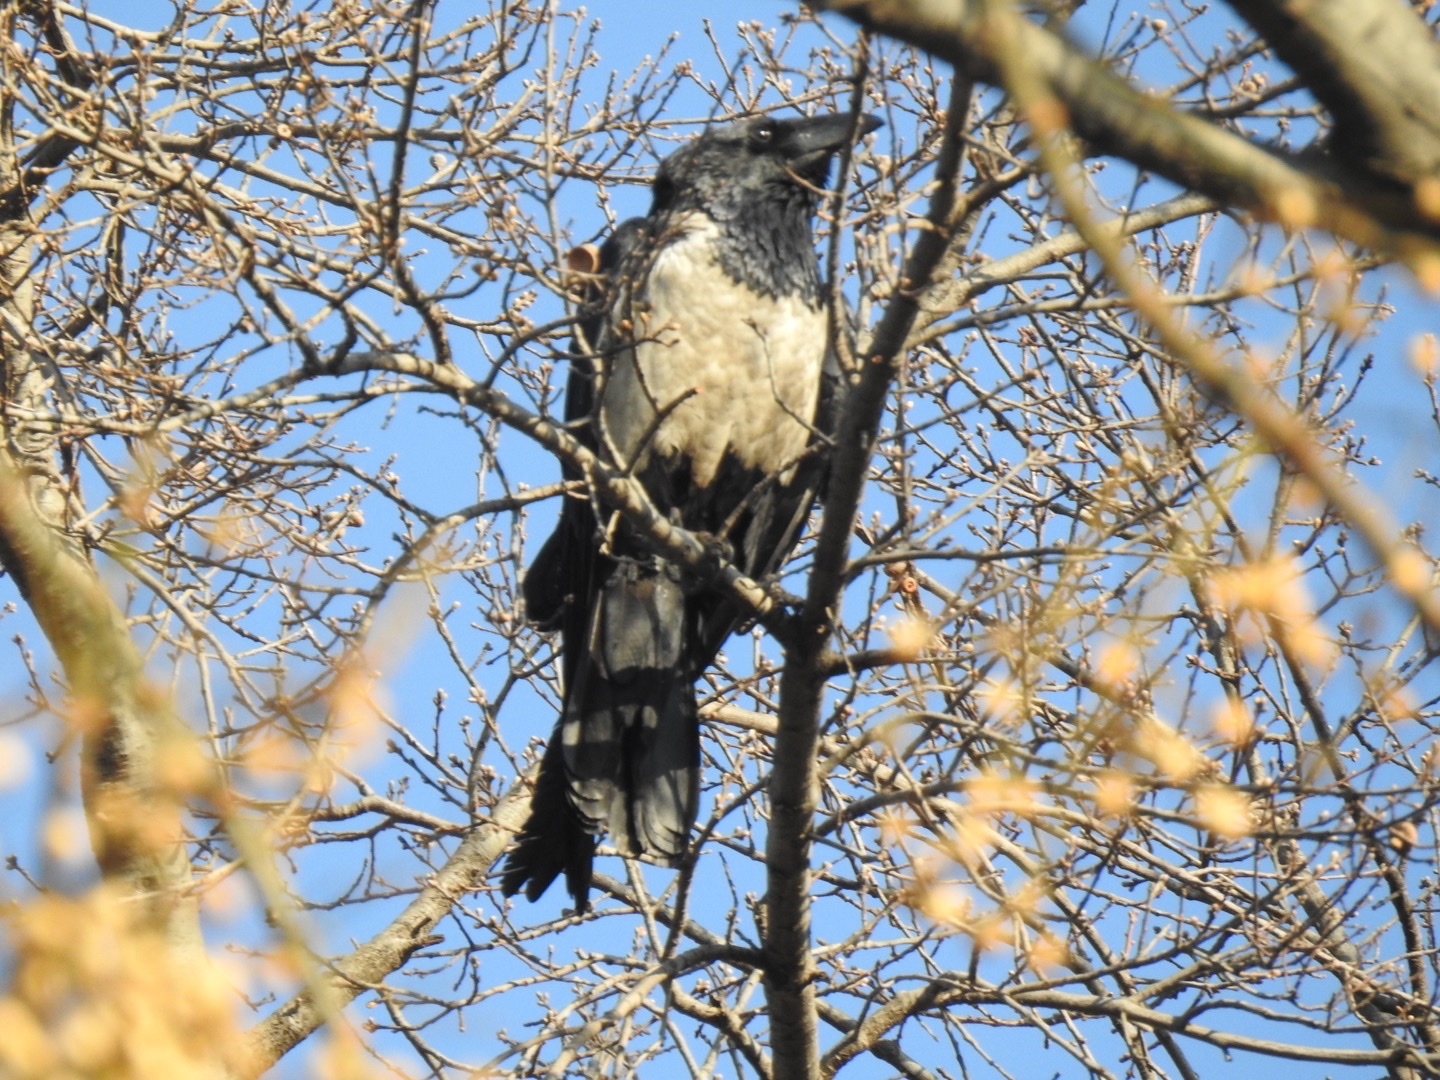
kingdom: Animalia
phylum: Chordata
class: Aves
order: Passeriformes
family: Corvidae
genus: Corvus
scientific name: Corvus albus
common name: Pied crow
